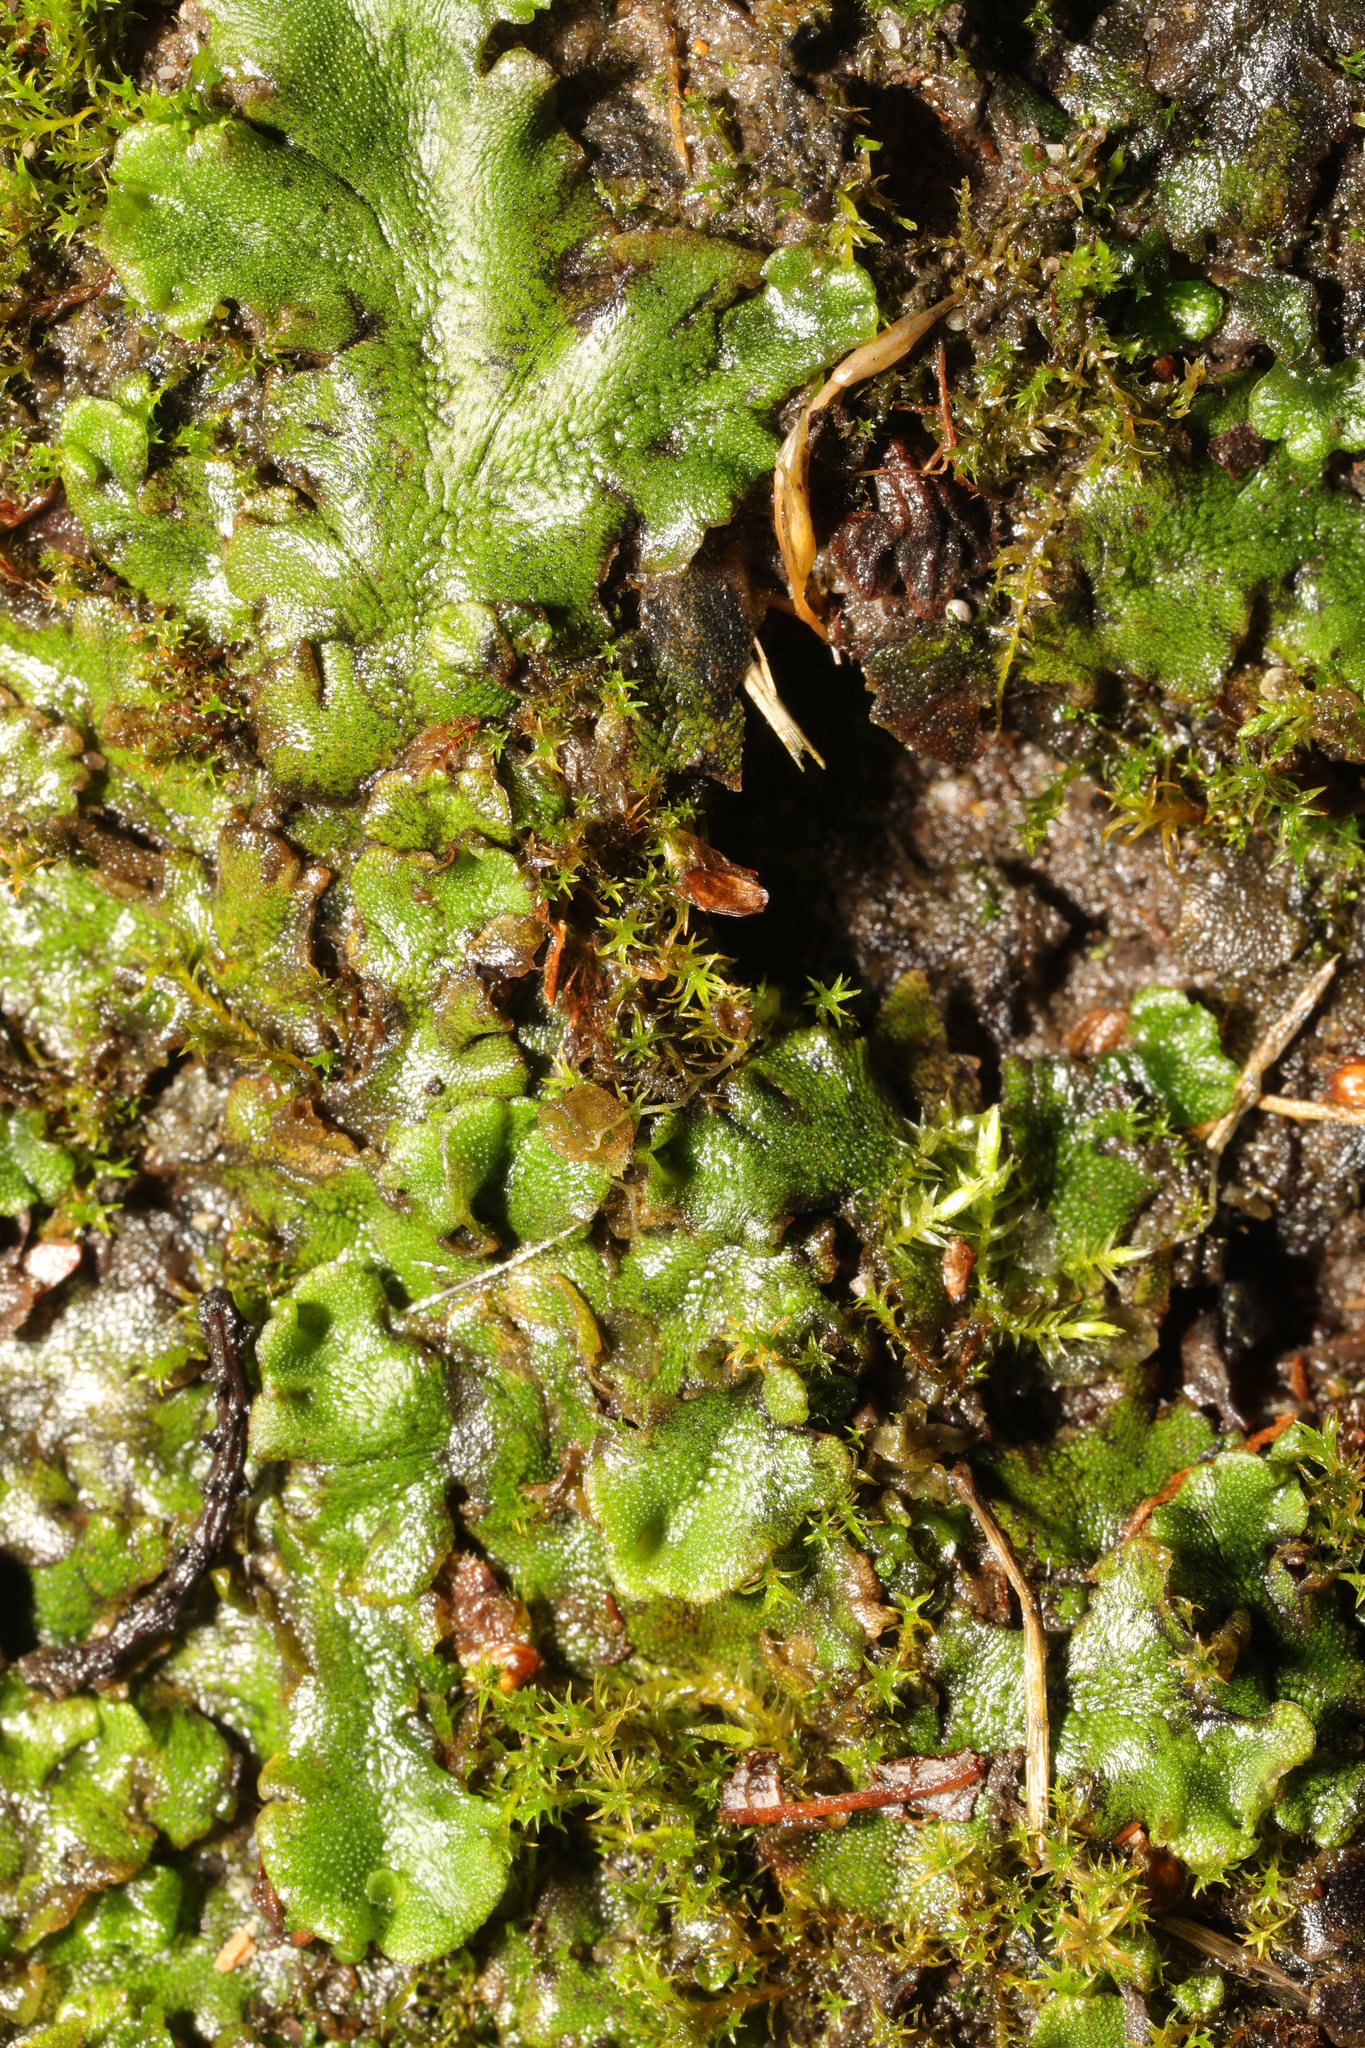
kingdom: Plantae
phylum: Marchantiophyta
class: Marchantiopsida
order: Marchantiales
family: Marchantiaceae
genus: Marchantia
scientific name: Marchantia polymorpha
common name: Common liverwort
